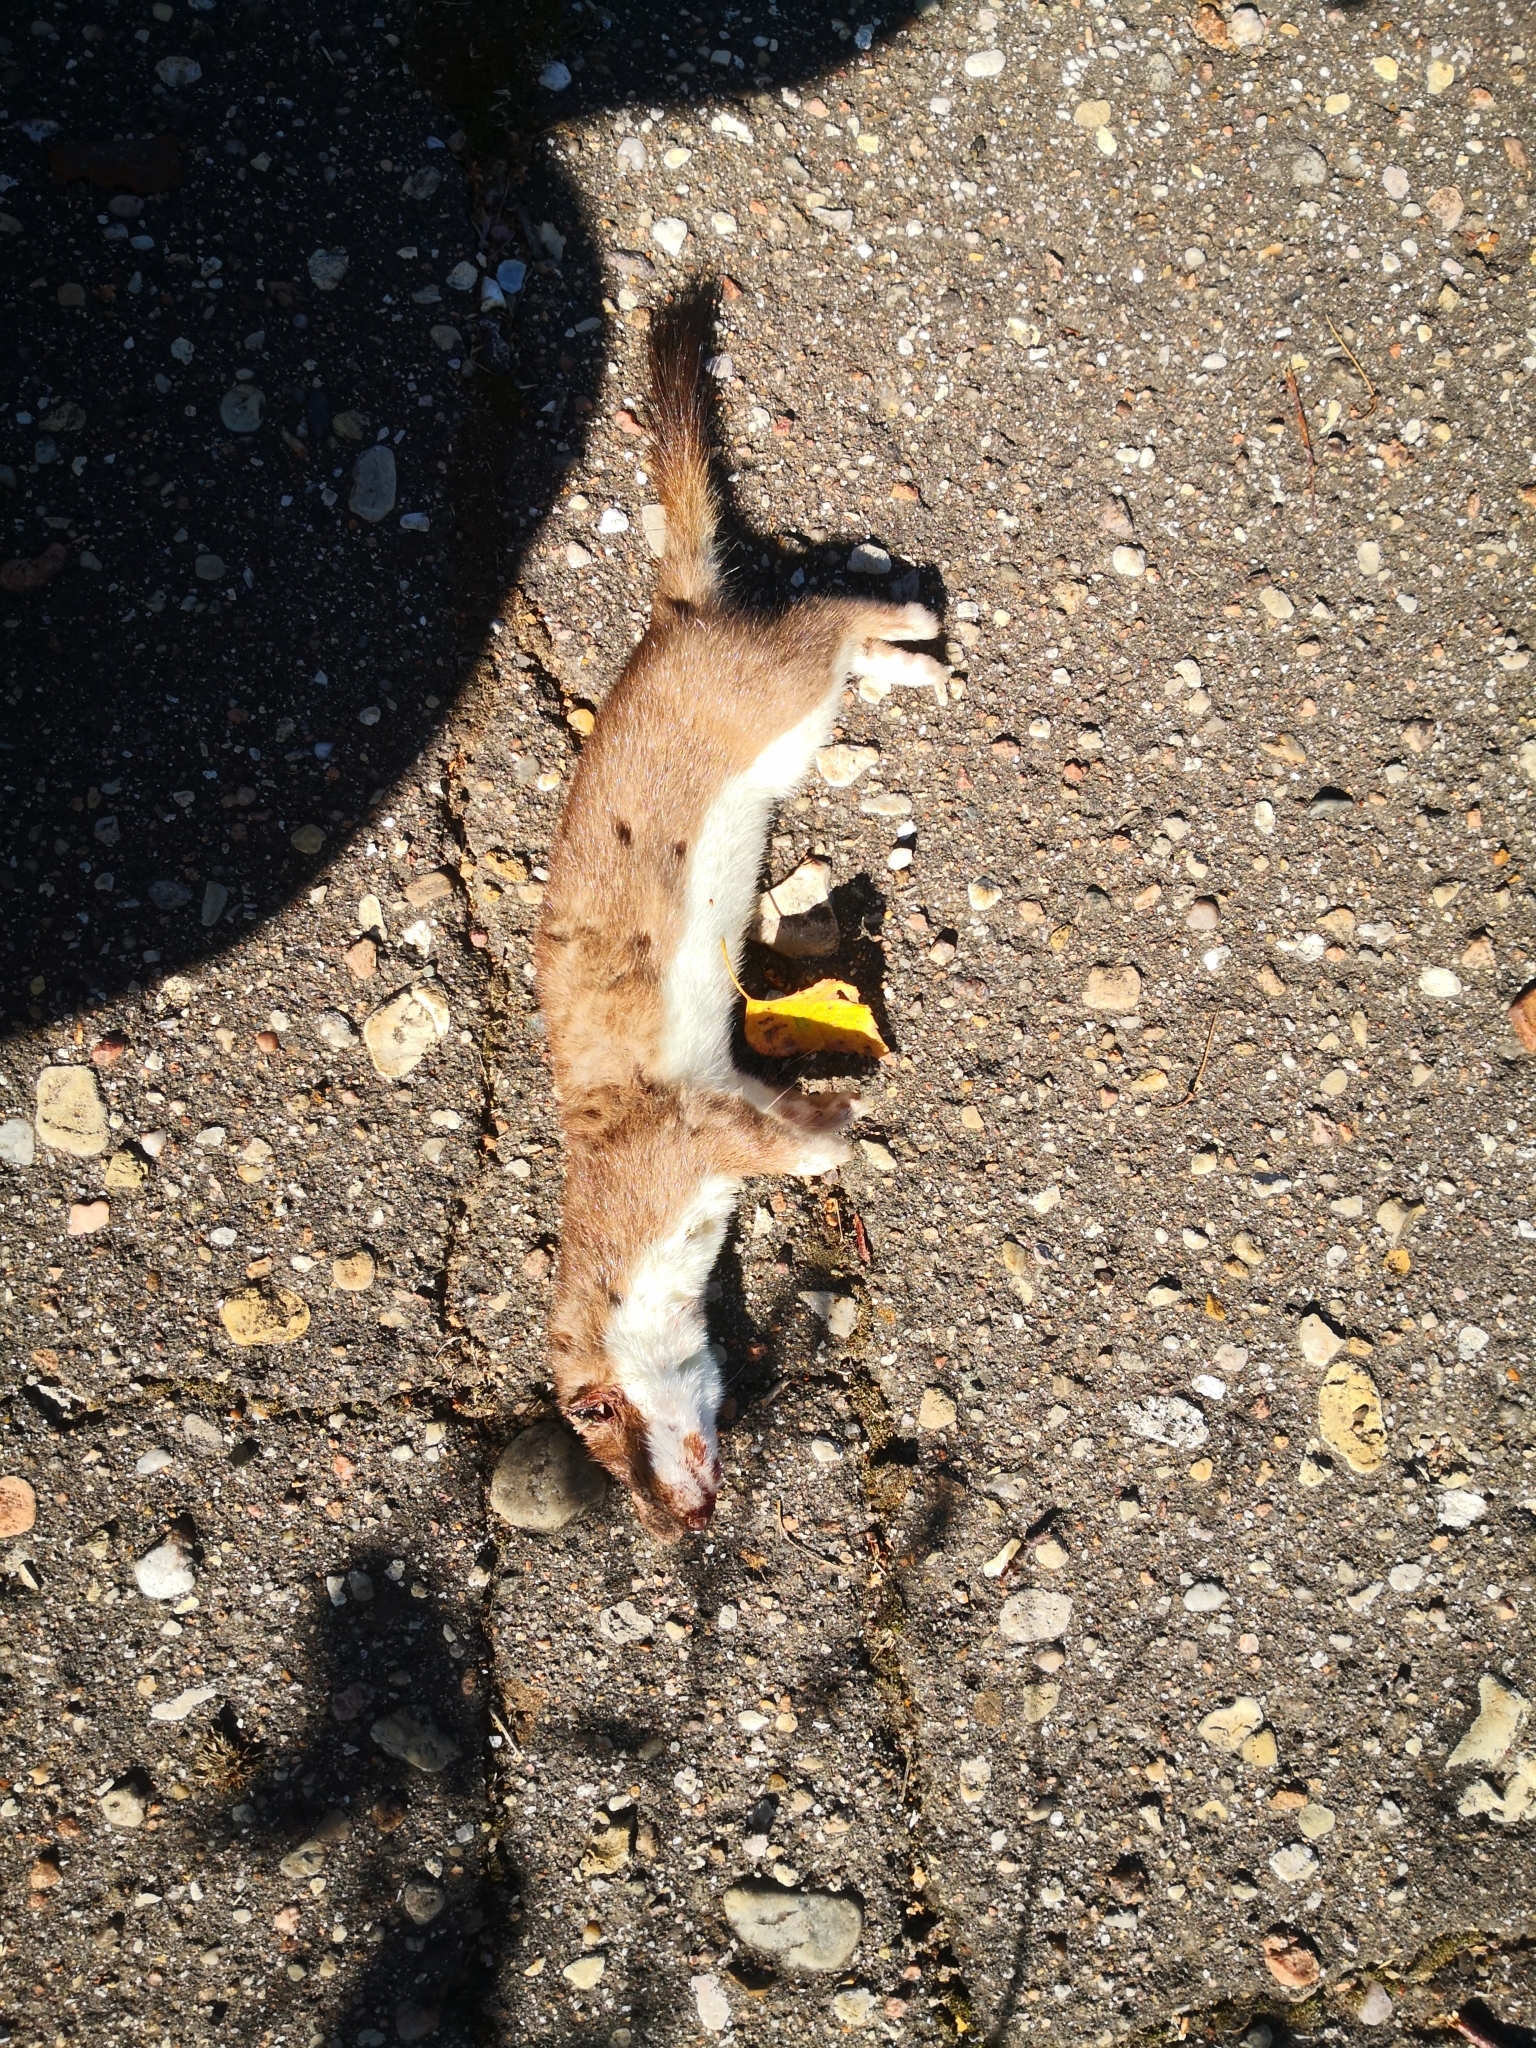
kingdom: Animalia
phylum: Chordata
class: Mammalia
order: Carnivora
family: Mustelidae
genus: Mustela
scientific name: Mustela erminea
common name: Stoat
